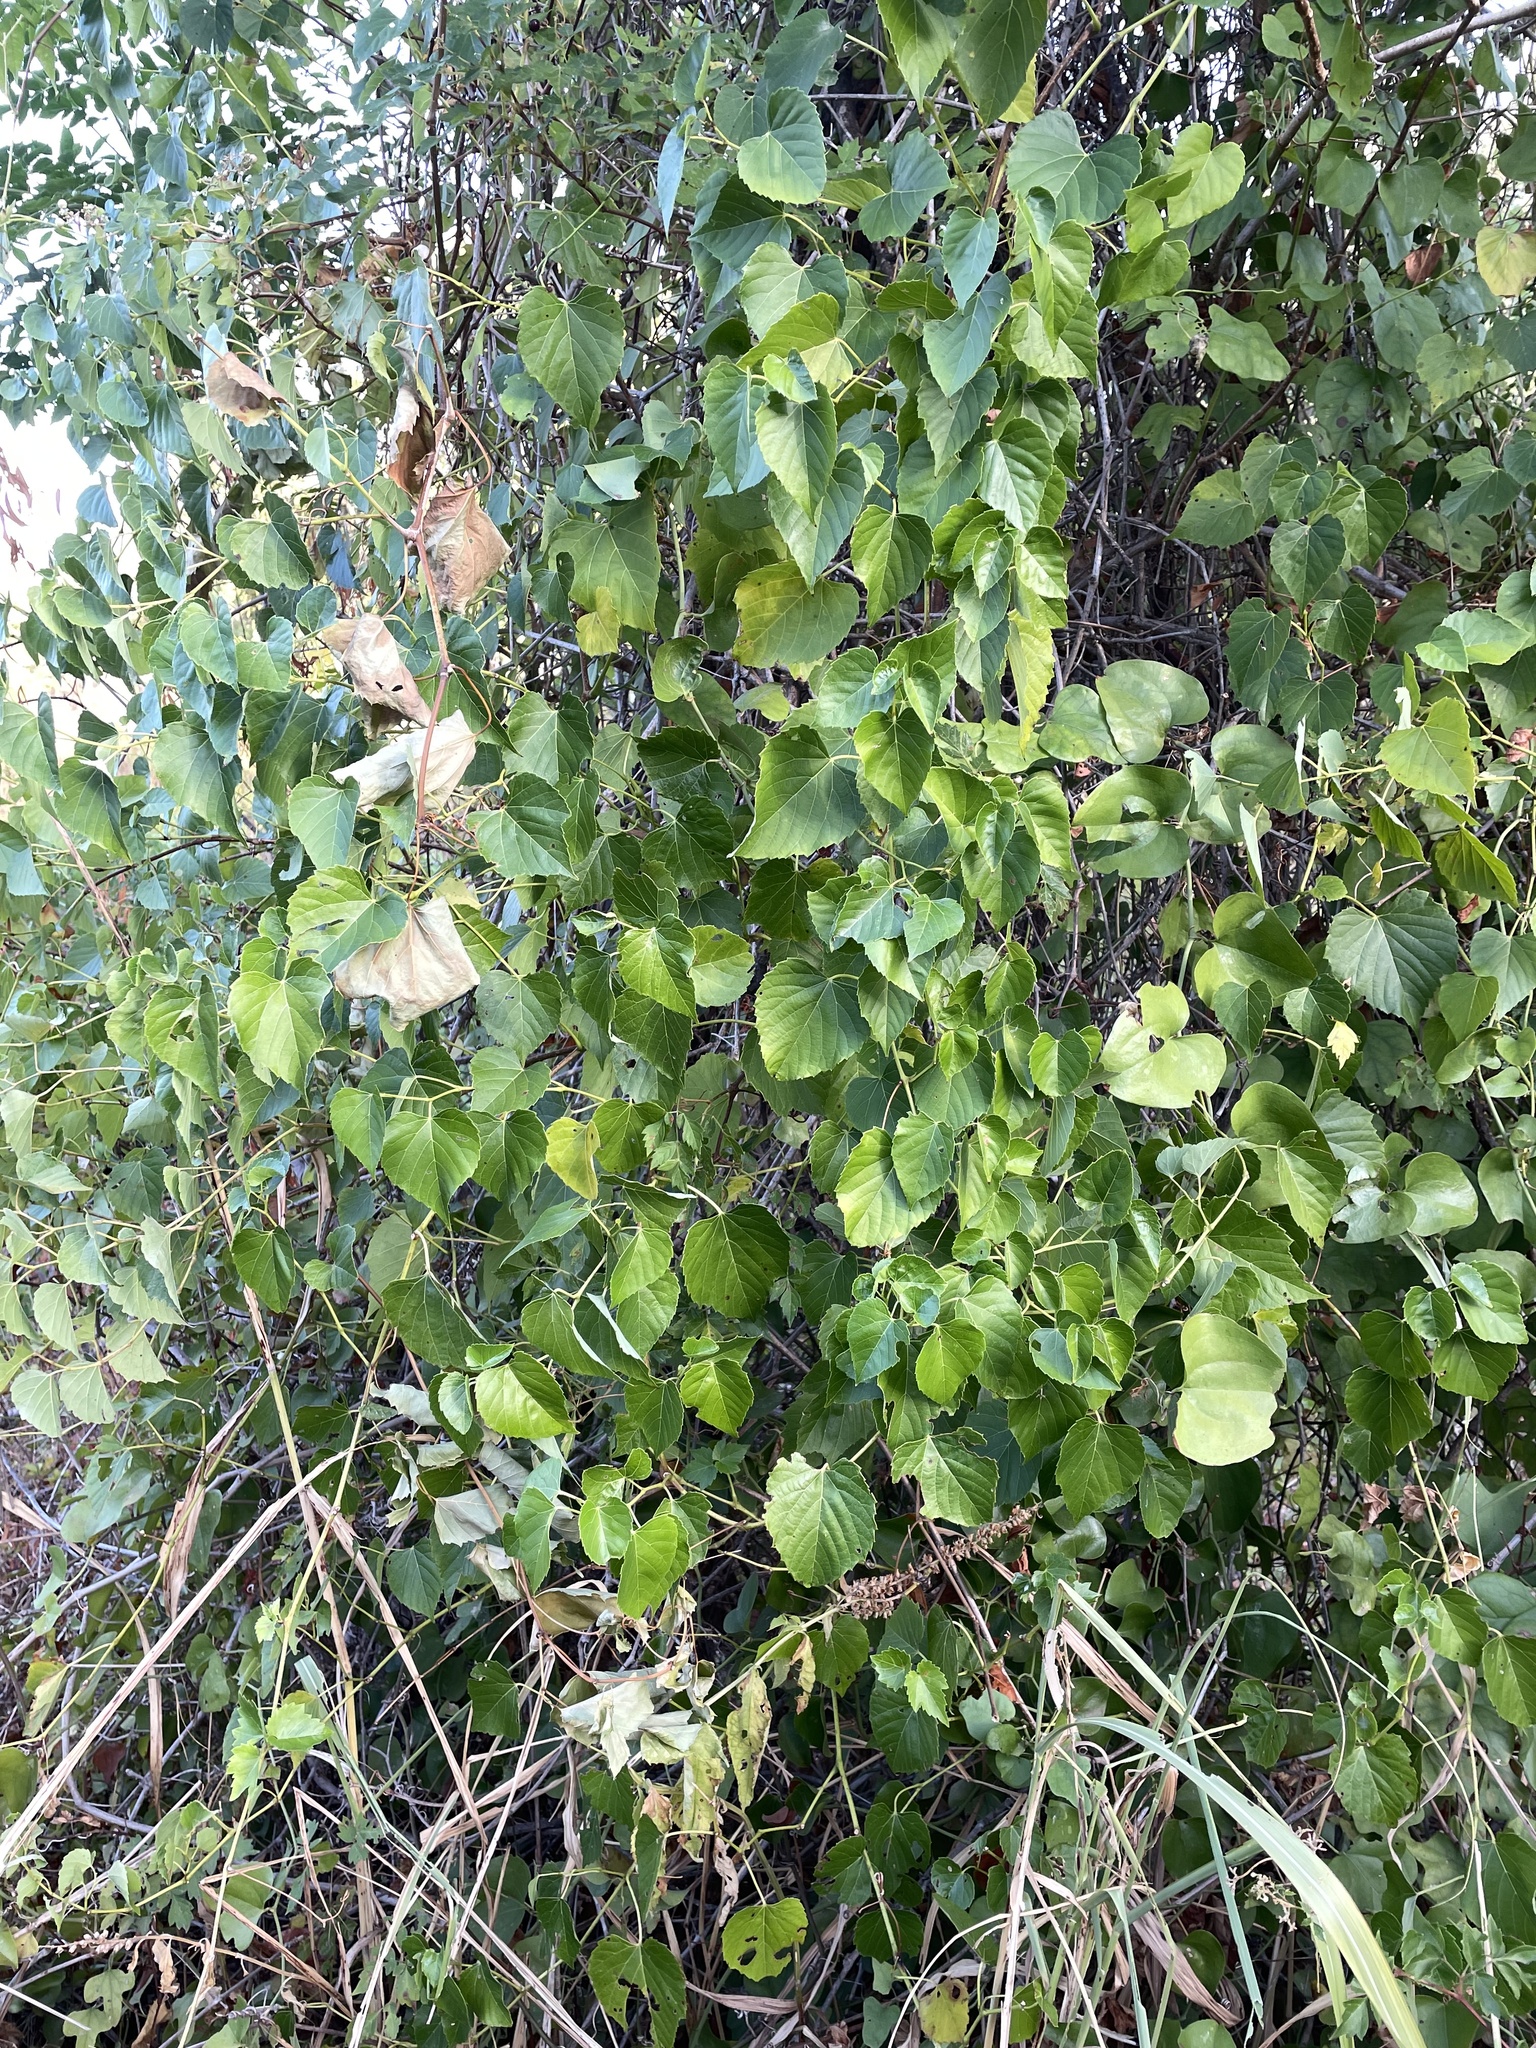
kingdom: Plantae
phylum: Tracheophyta
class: Magnoliopsida
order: Vitales
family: Vitaceae
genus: Ampelopsis
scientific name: Ampelopsis cordata
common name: Heart-leaf ampelopsis
